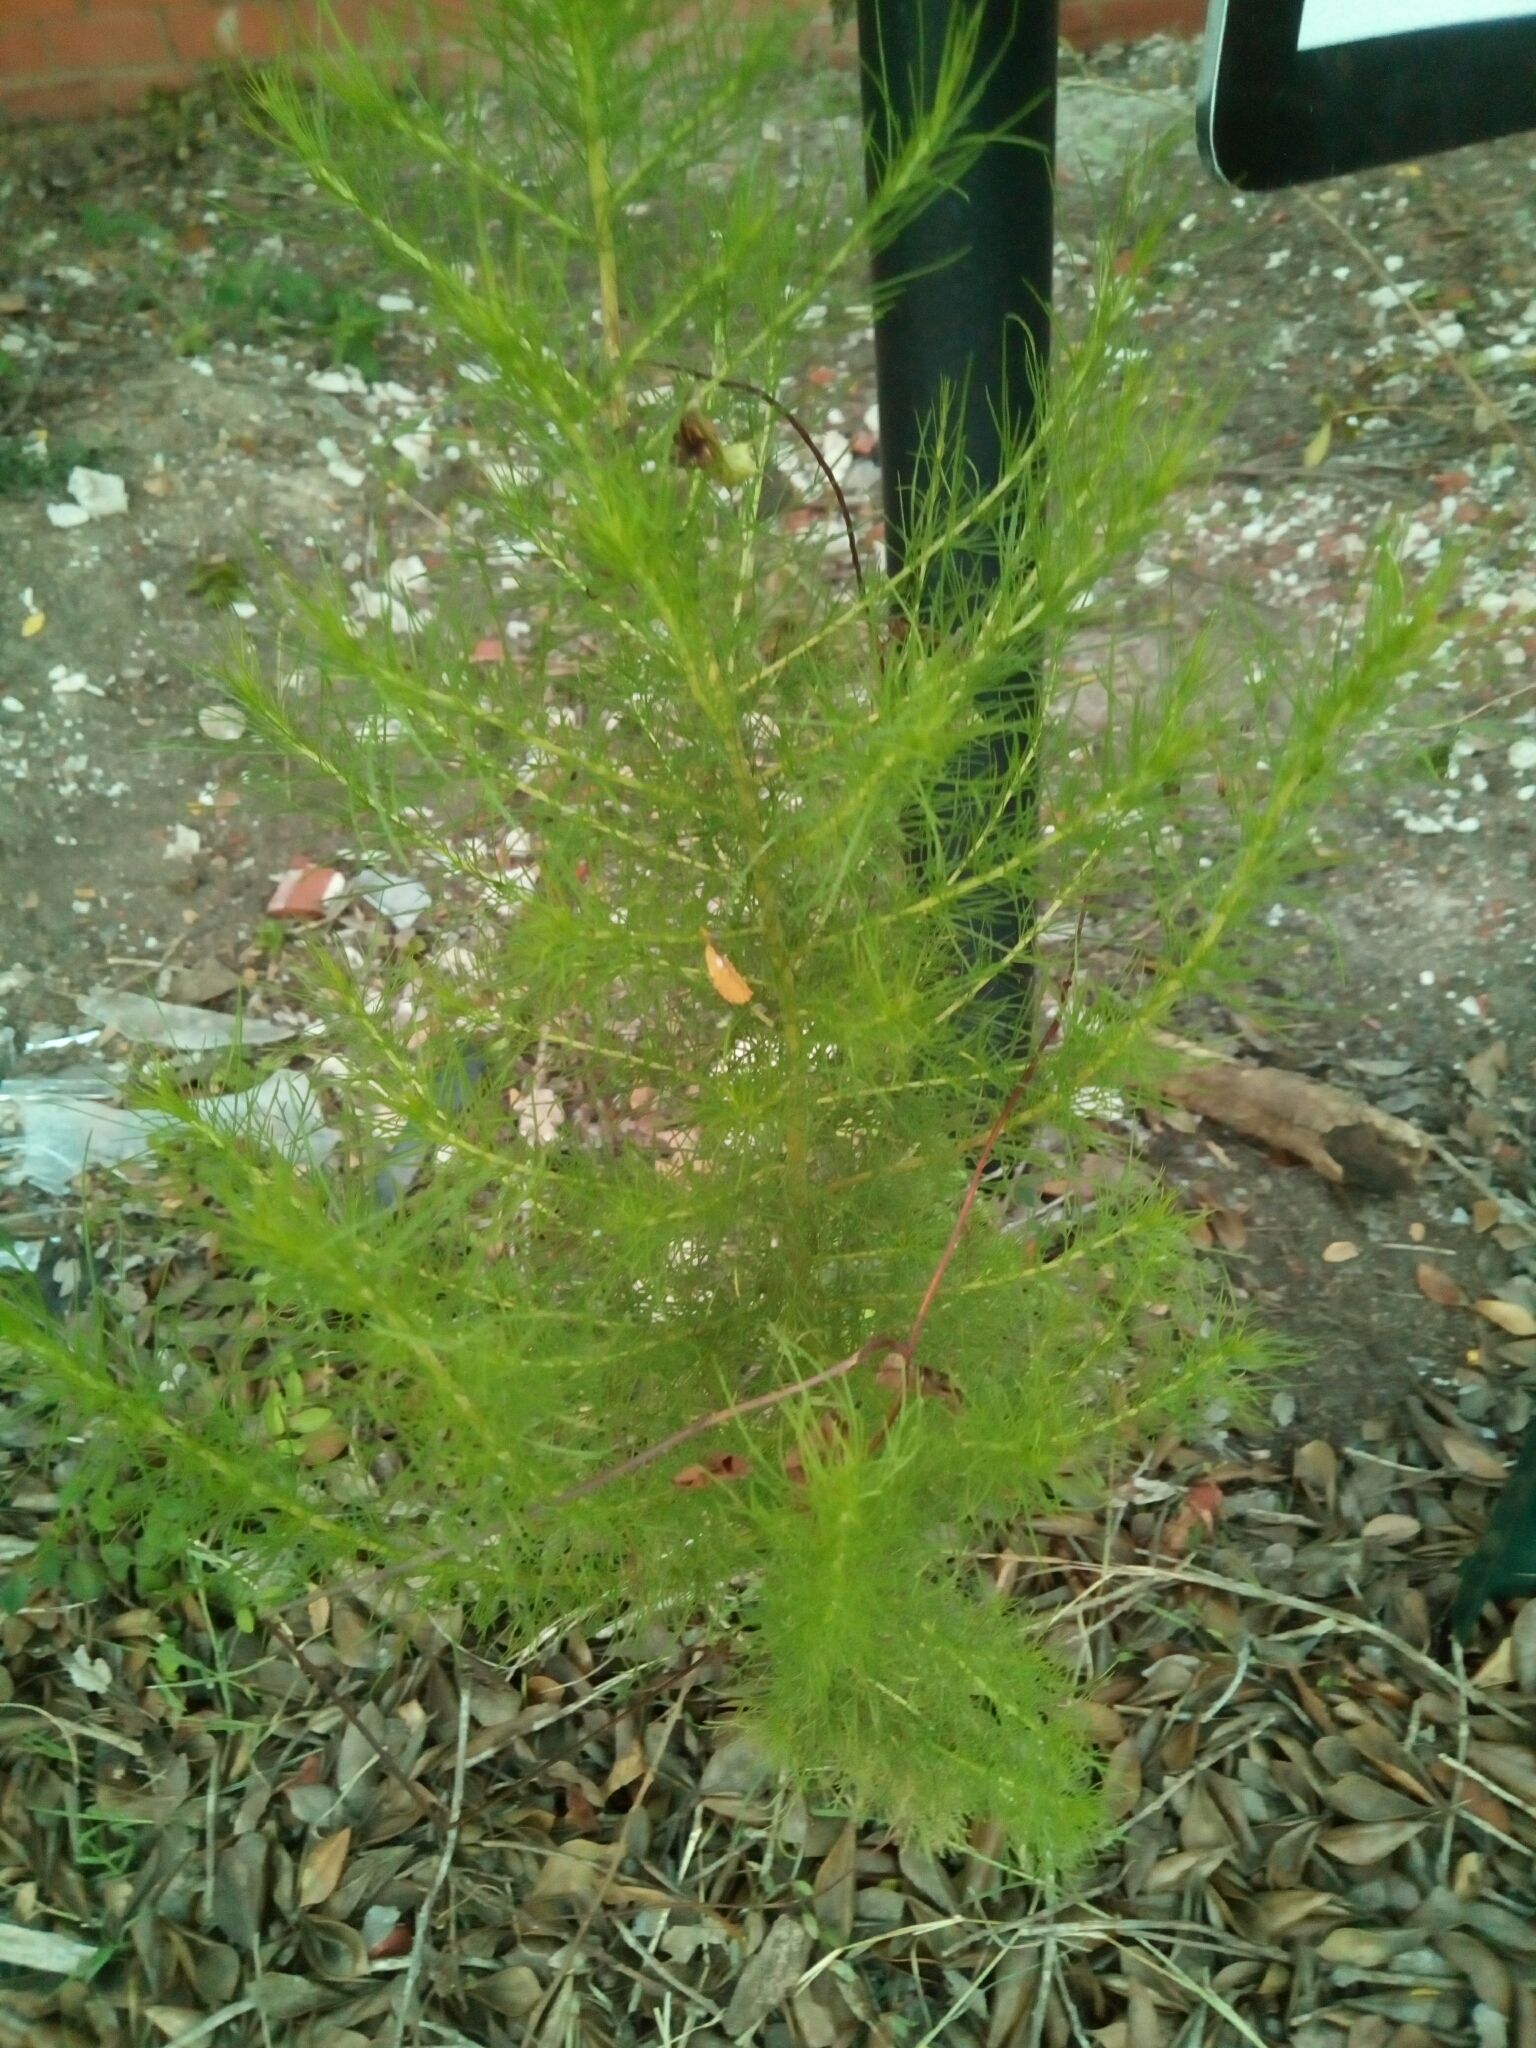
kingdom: Plantae
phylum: Tracheophyta
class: Magnoliopsida
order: Asterales
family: Asteraceae
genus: Eupatorium
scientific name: Eupatorium capillifolium
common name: Dog-fennel
